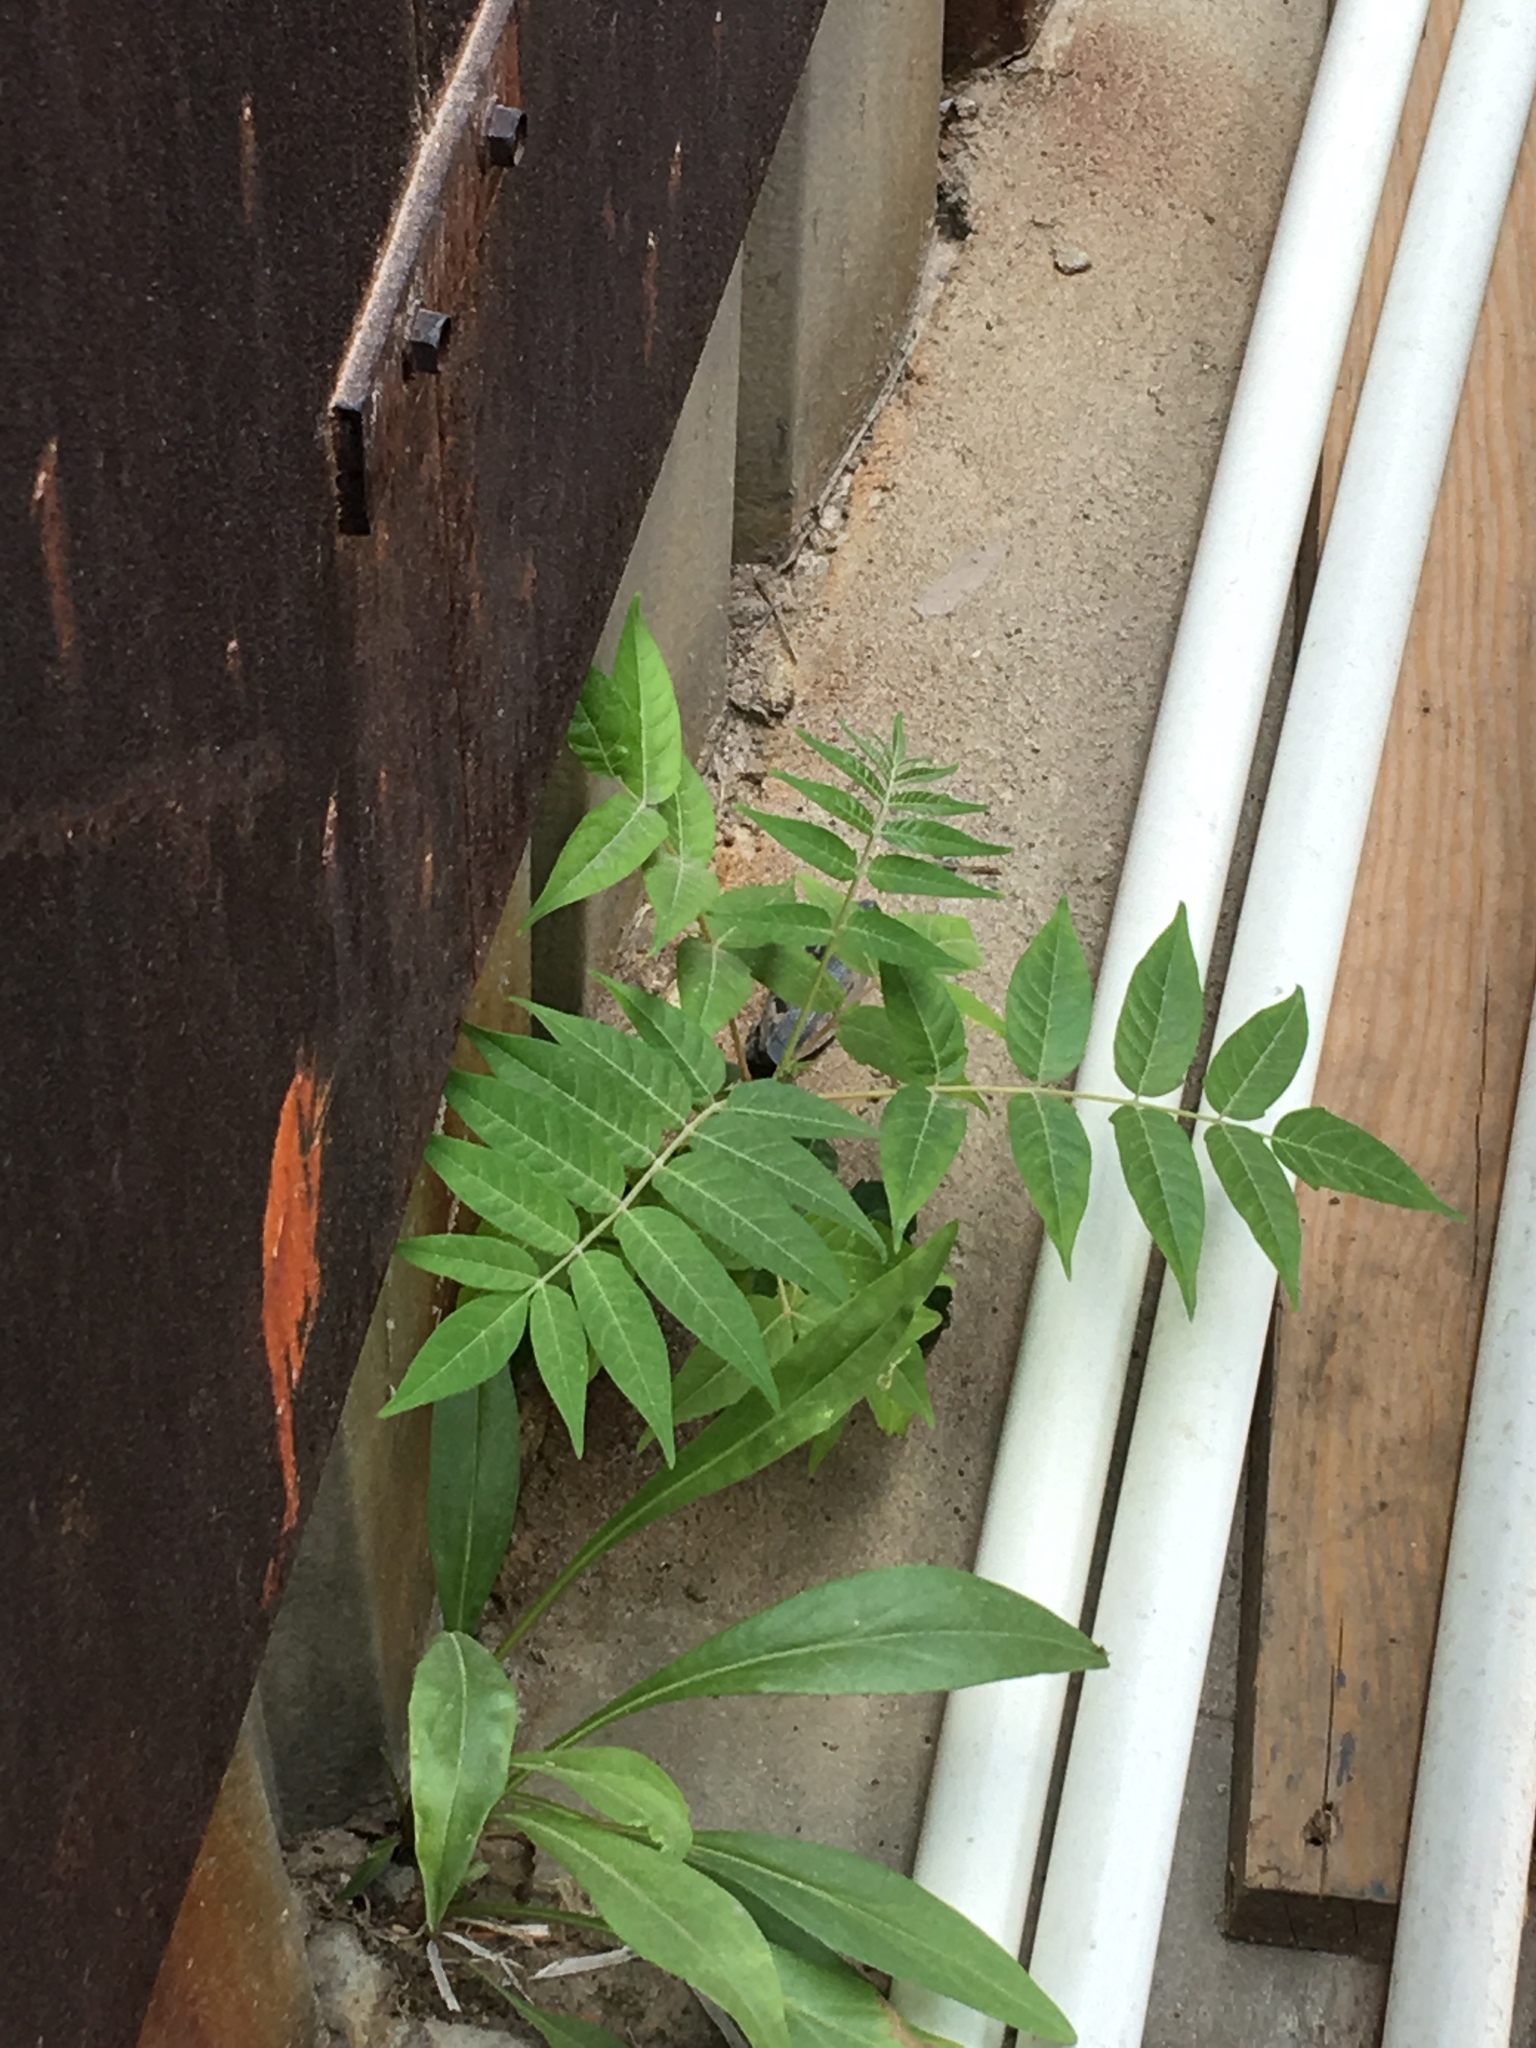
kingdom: Plantae
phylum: Tracheophyta
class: Magnoliopsida
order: Sapindales
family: Simaroubaceae
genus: Ailanthus
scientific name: Ailanthus altissima
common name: Tree-of-heaven
